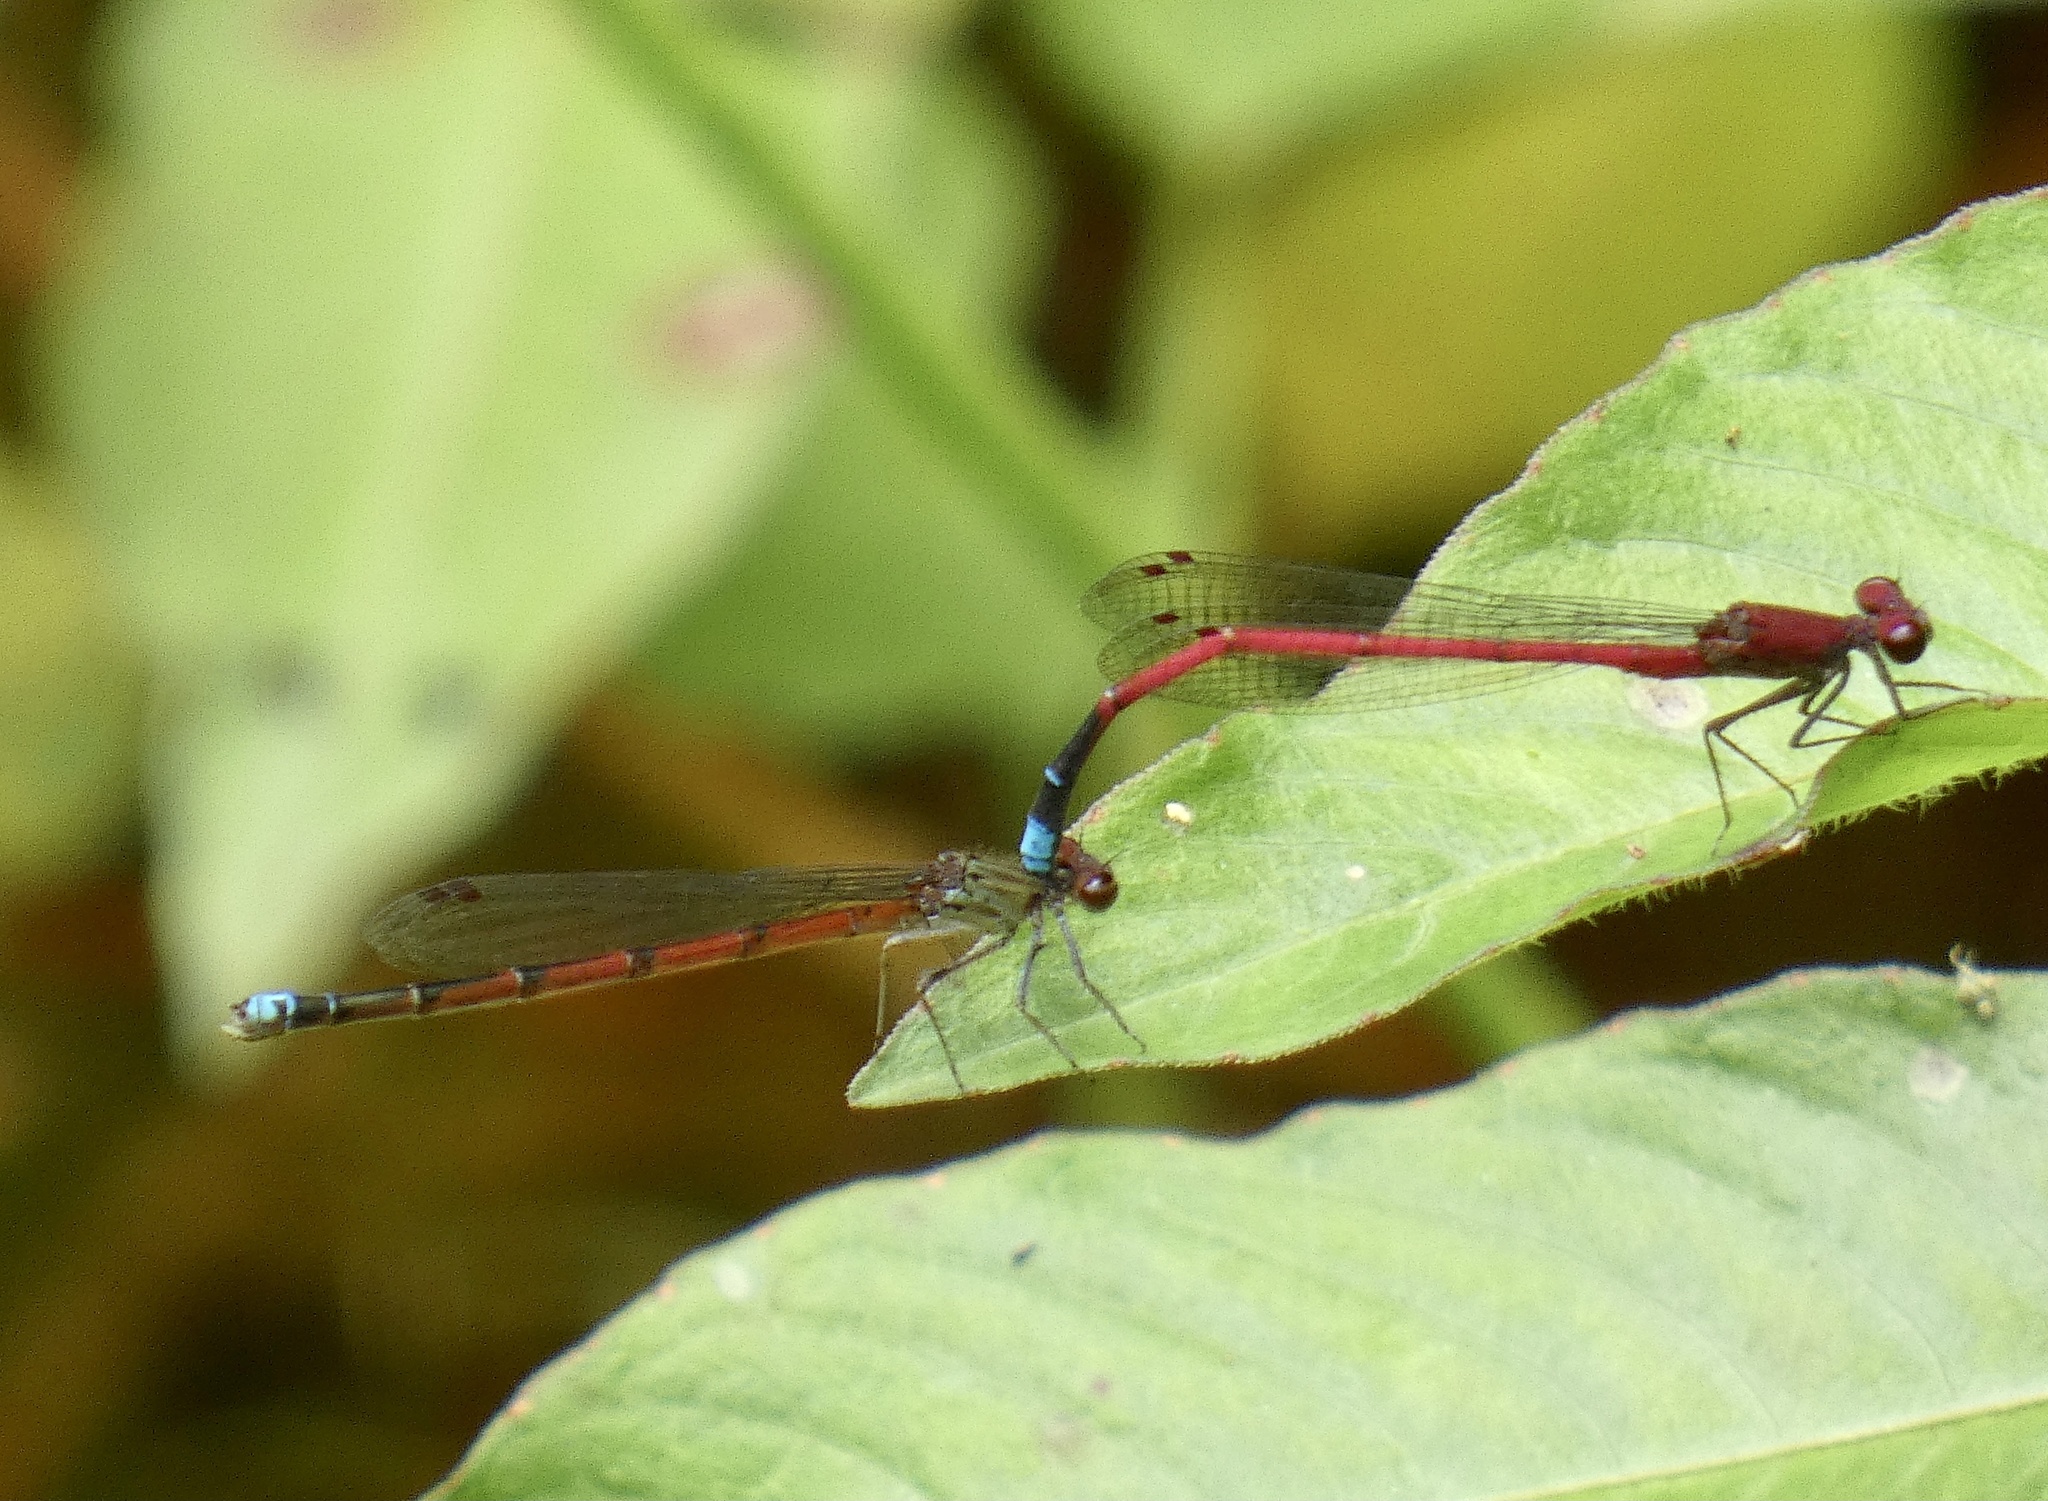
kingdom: Animalia
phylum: Arthropoda
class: Insecta
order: Odonata
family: Coenagrionidae
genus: Oxyagrion
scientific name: Oxyagrion simile
